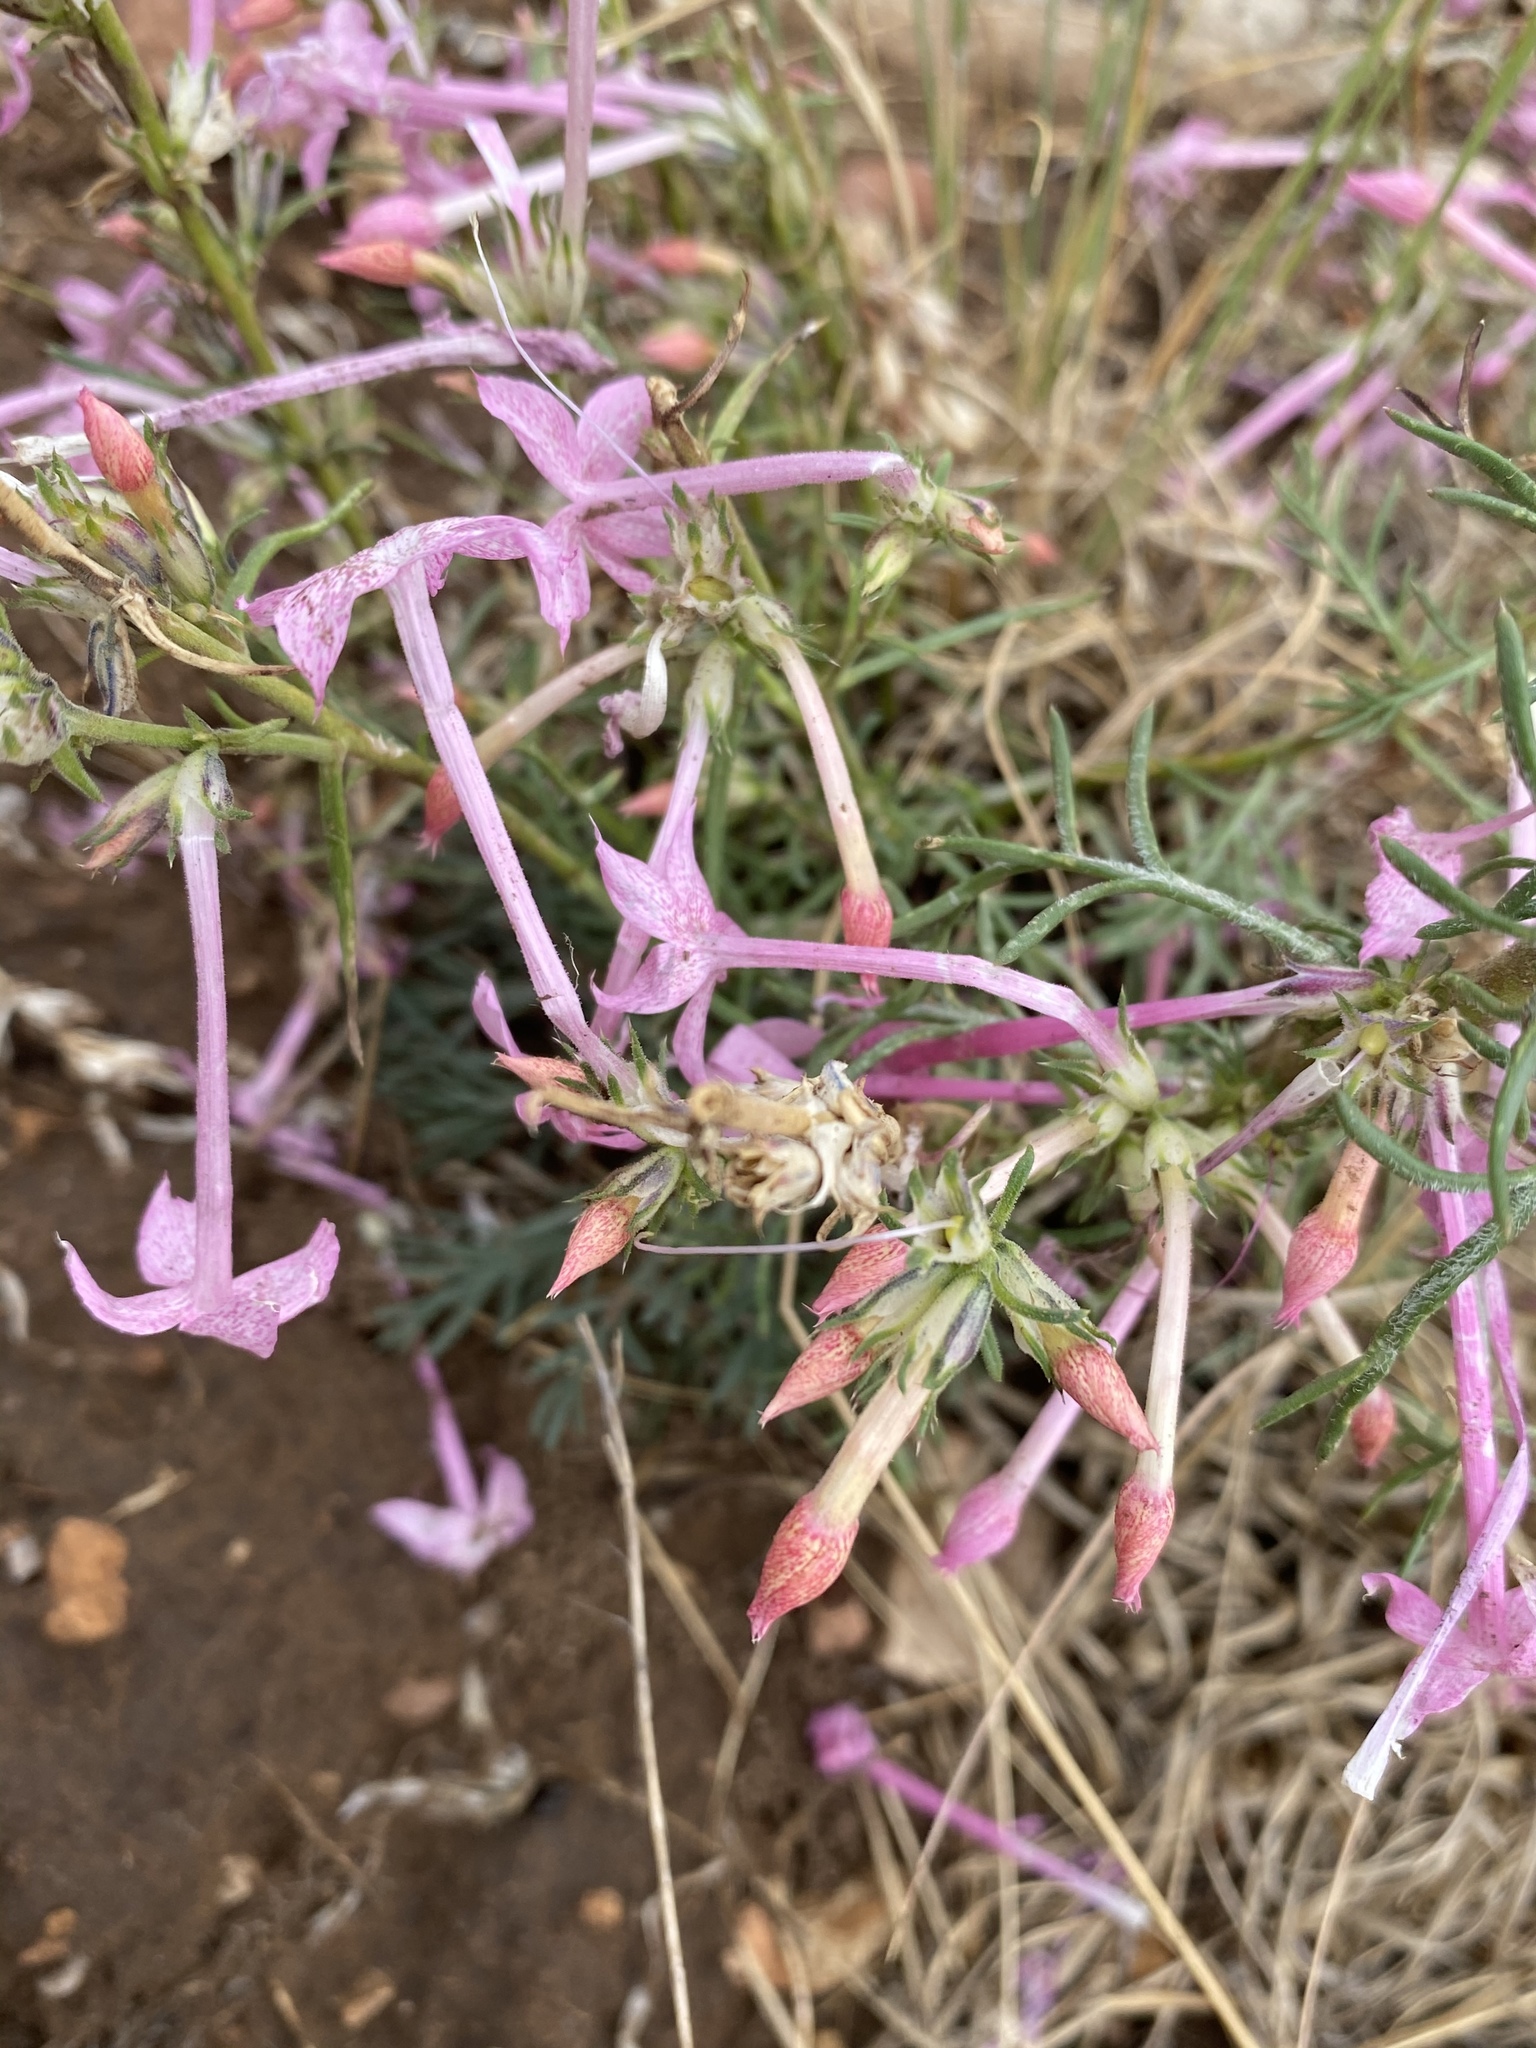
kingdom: Plantae
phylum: Tracheophyta
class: Magnoliopsida
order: Ericales
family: Polemoniaceae
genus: Ipomopsis
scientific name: Ipomopsis tenuituba
